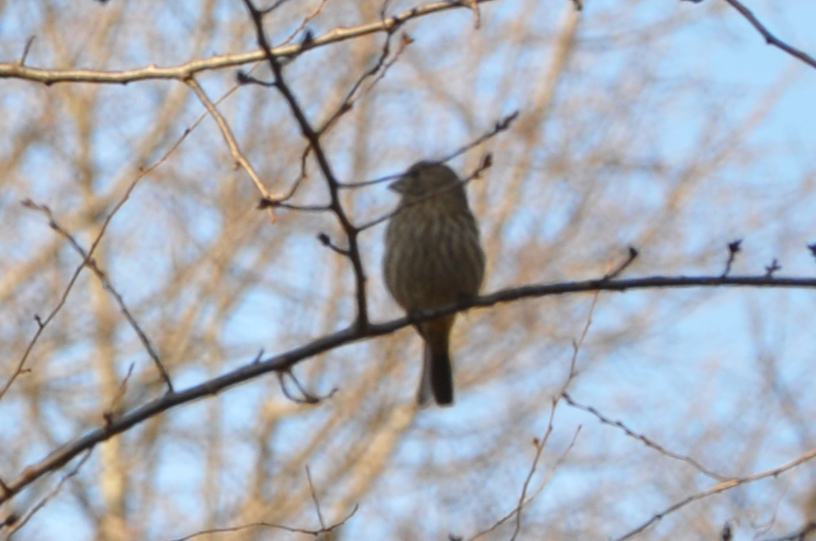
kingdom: Animalia
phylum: Chordata
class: Aves
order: Passeriformes
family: Fringillidae
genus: Haemorhous
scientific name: Haemorhous mexicanus
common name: House finch
